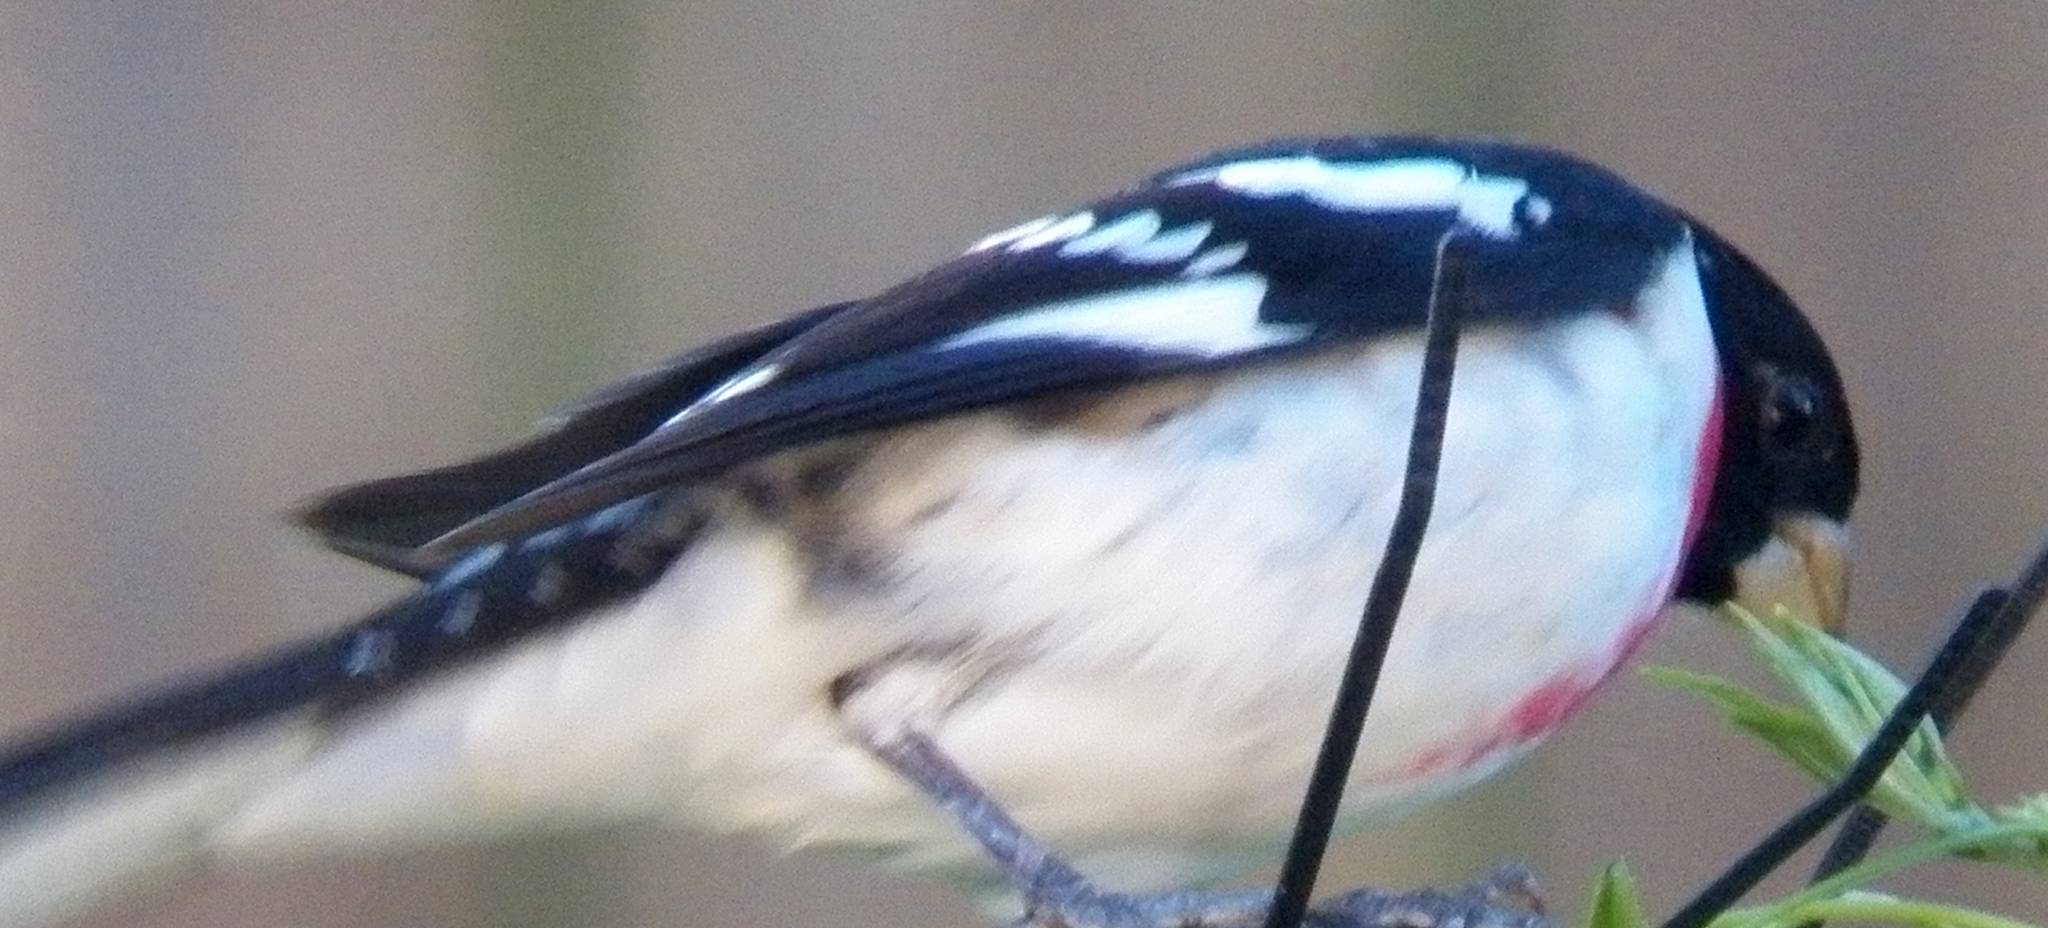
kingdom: Animalia
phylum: Chordata
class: Aves
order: Passeriformes
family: Cardinalidae
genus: Pheucticus
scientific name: Pheucticus ludovicianus
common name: Rose-breasted grosbeak
